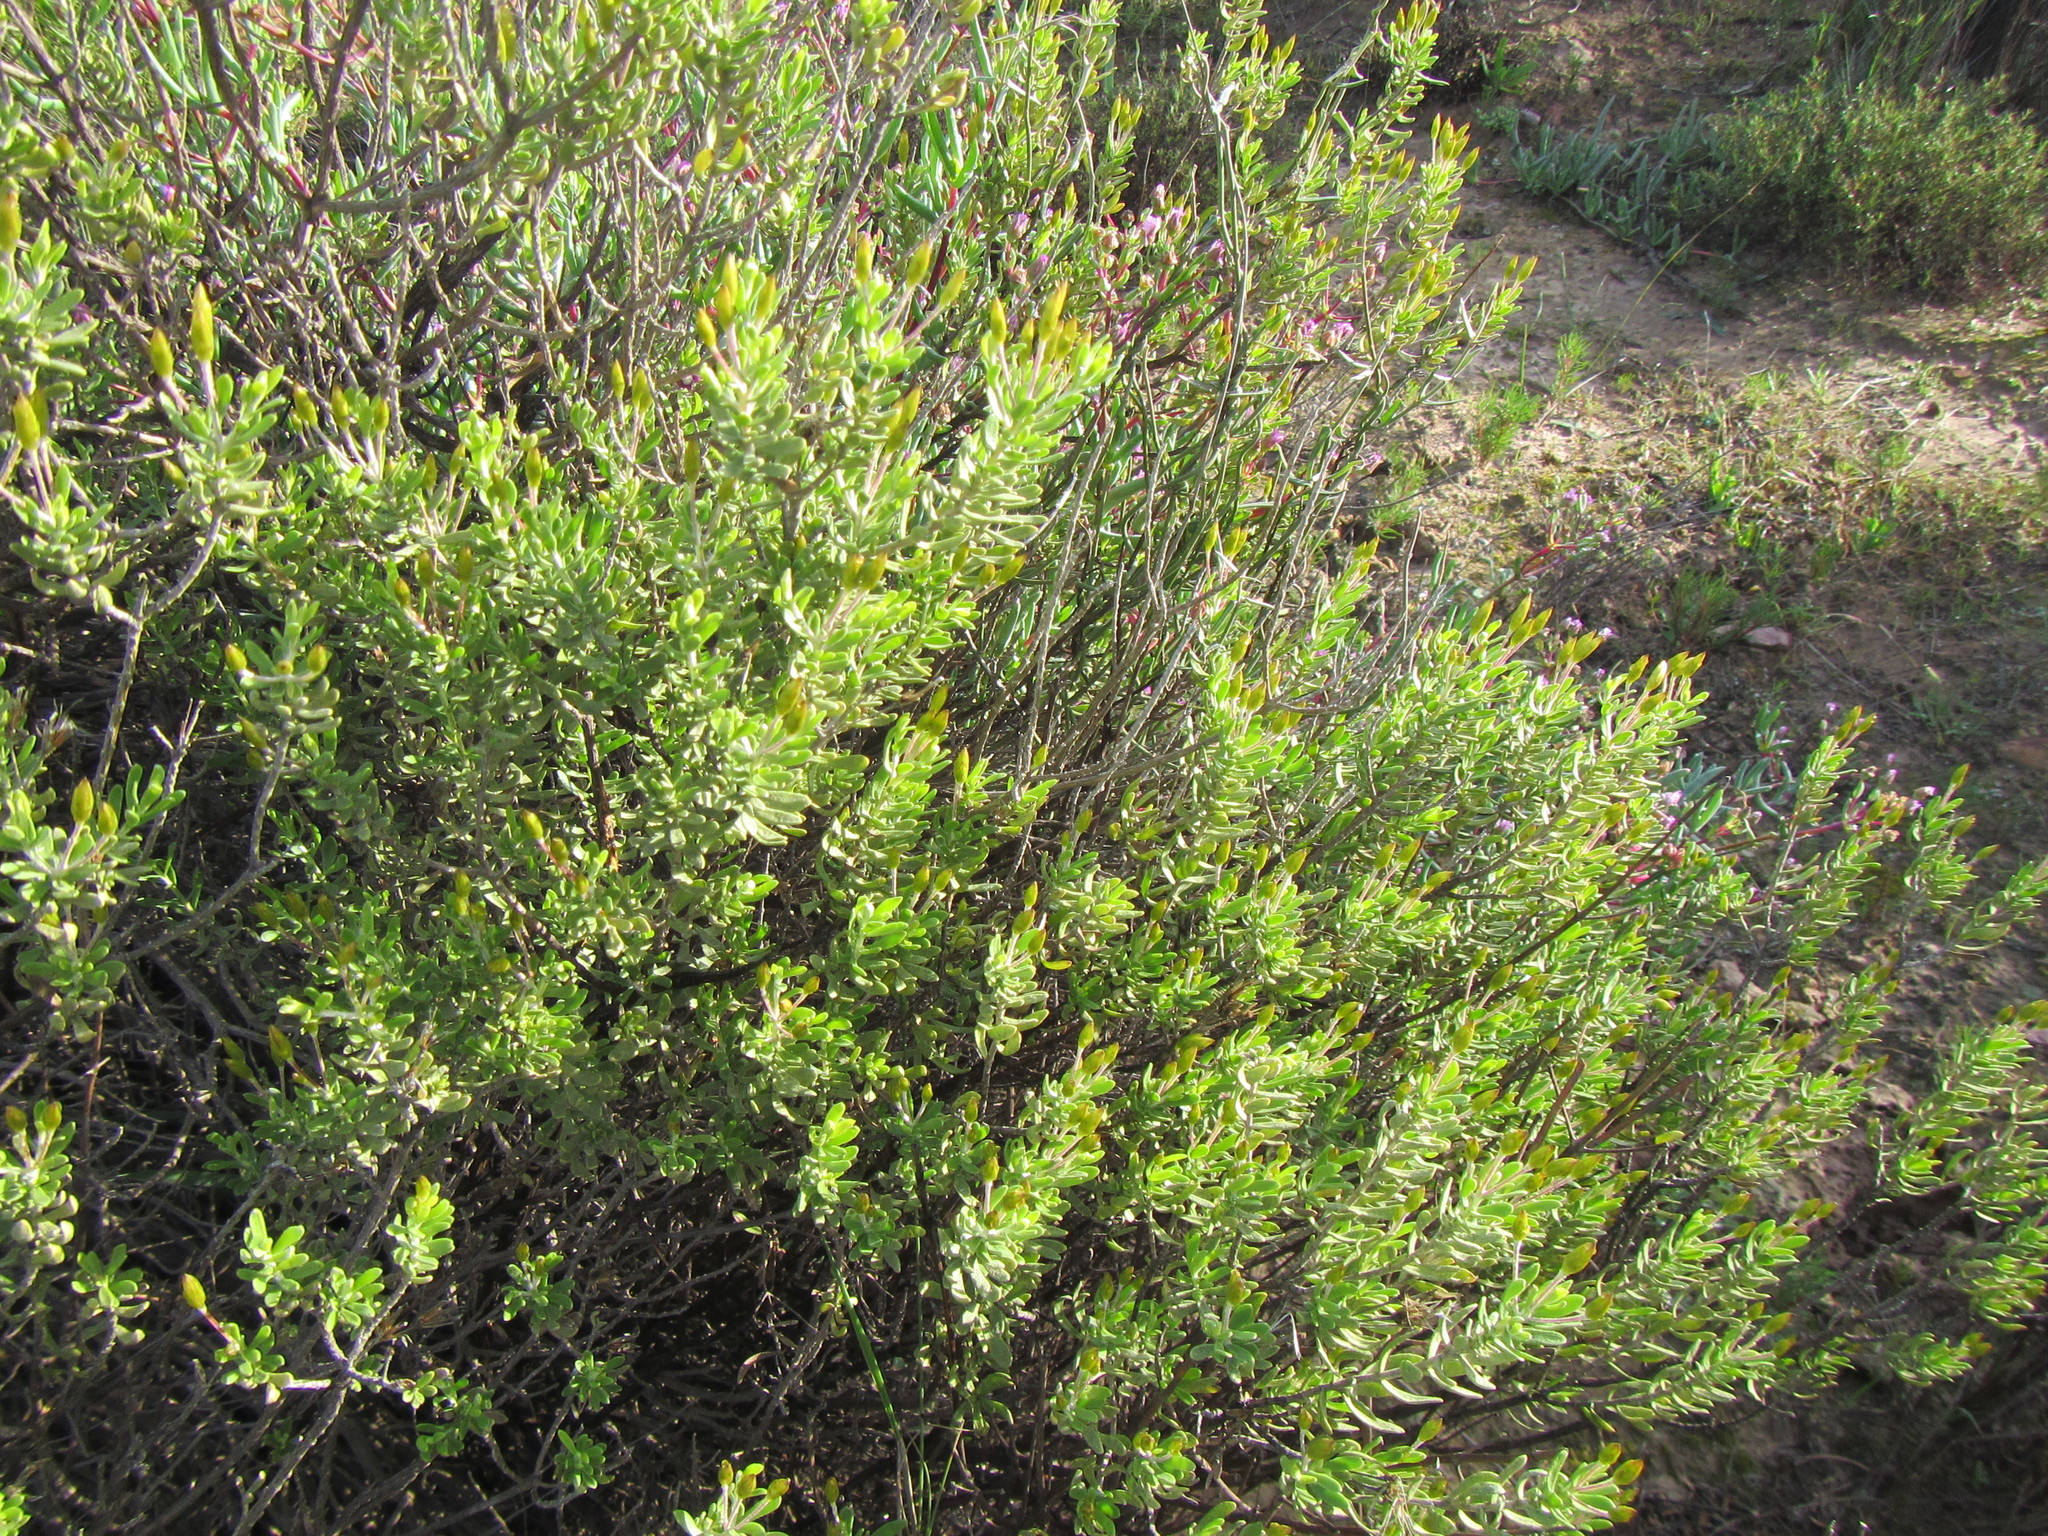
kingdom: Plantae
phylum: Tracheophyta
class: Magnoliopsida
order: Asterales
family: Asteraceae
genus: Oedera
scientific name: Oedera multipunctata
